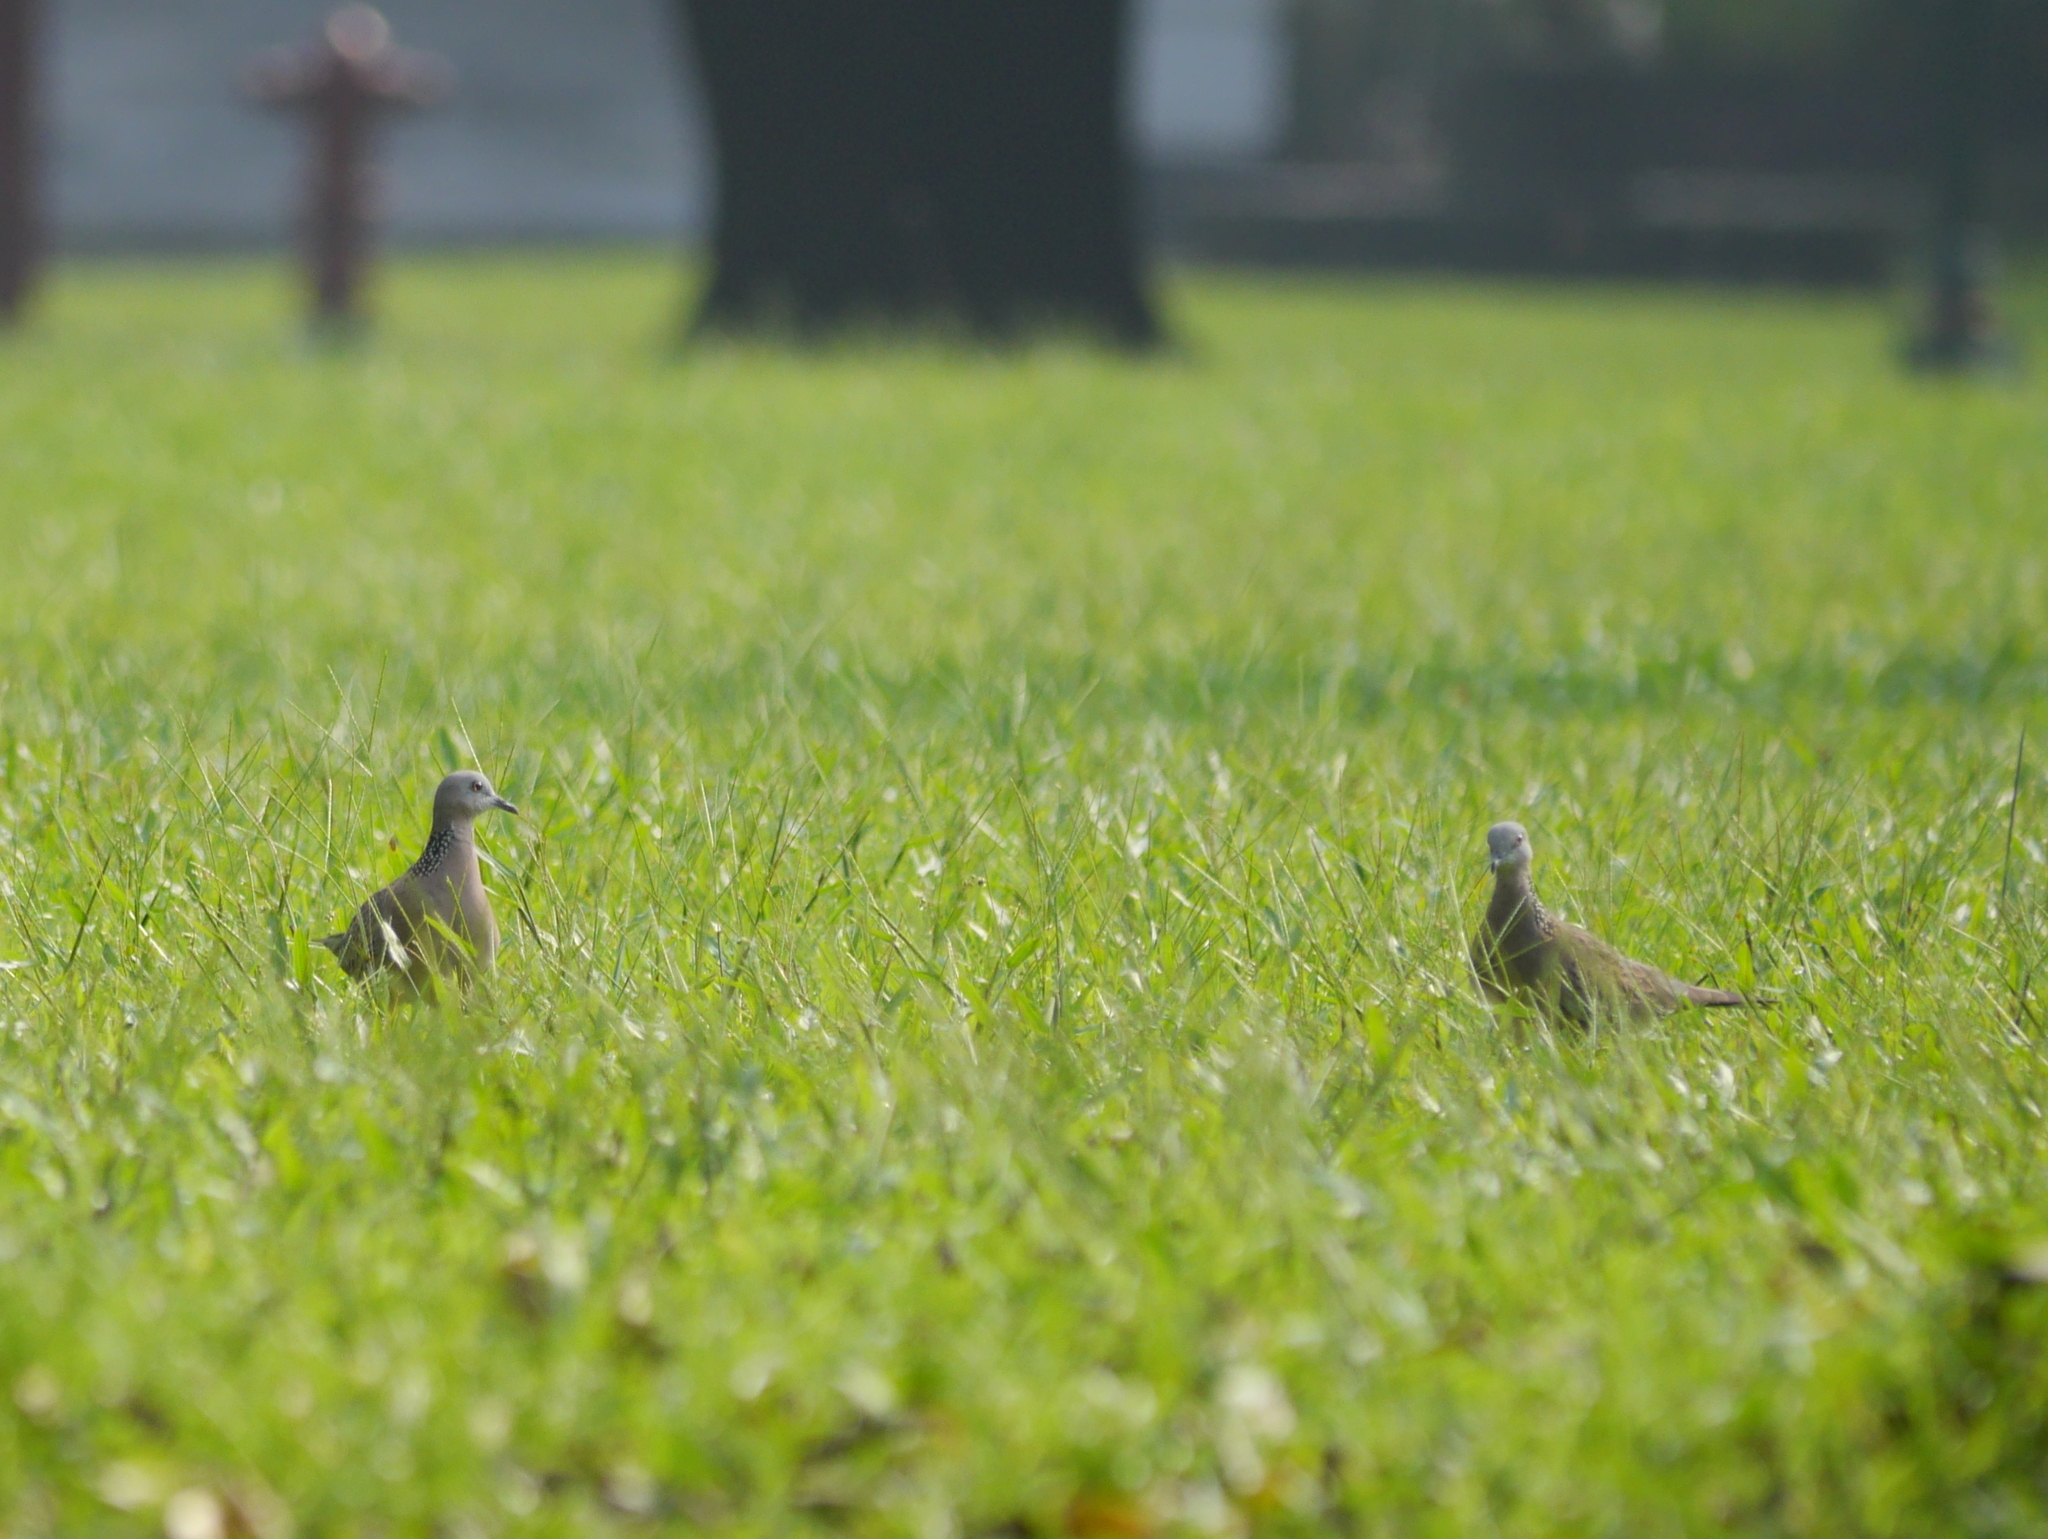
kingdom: Animalia
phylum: Chordata
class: Aves
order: Columbiformes
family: Columbidae
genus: Spilopelia
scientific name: Spilopelia chinensis
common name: Spotted dove
